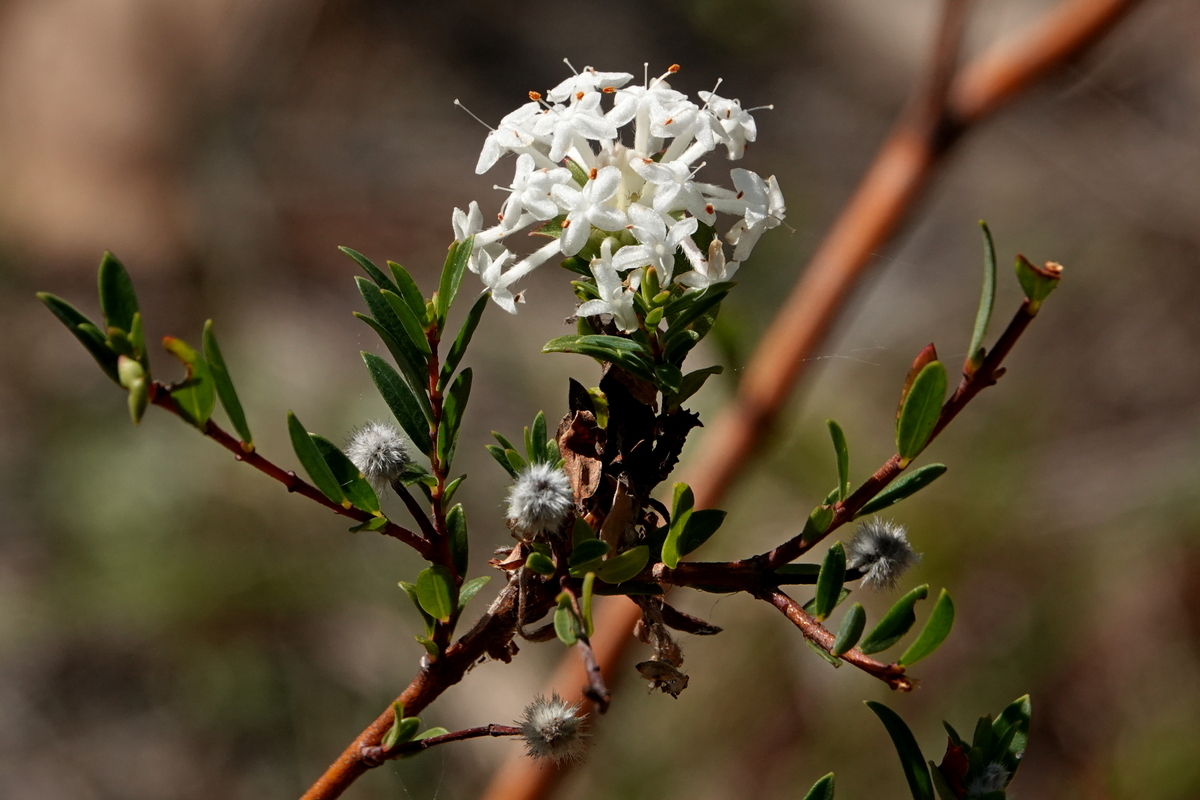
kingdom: Plantae
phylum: Tracheophyta
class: Magnoliopsida
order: Malvales
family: Thymelaeaceae
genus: Pimelea
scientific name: Pimelea linifolia
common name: Queen-of-the-bush
